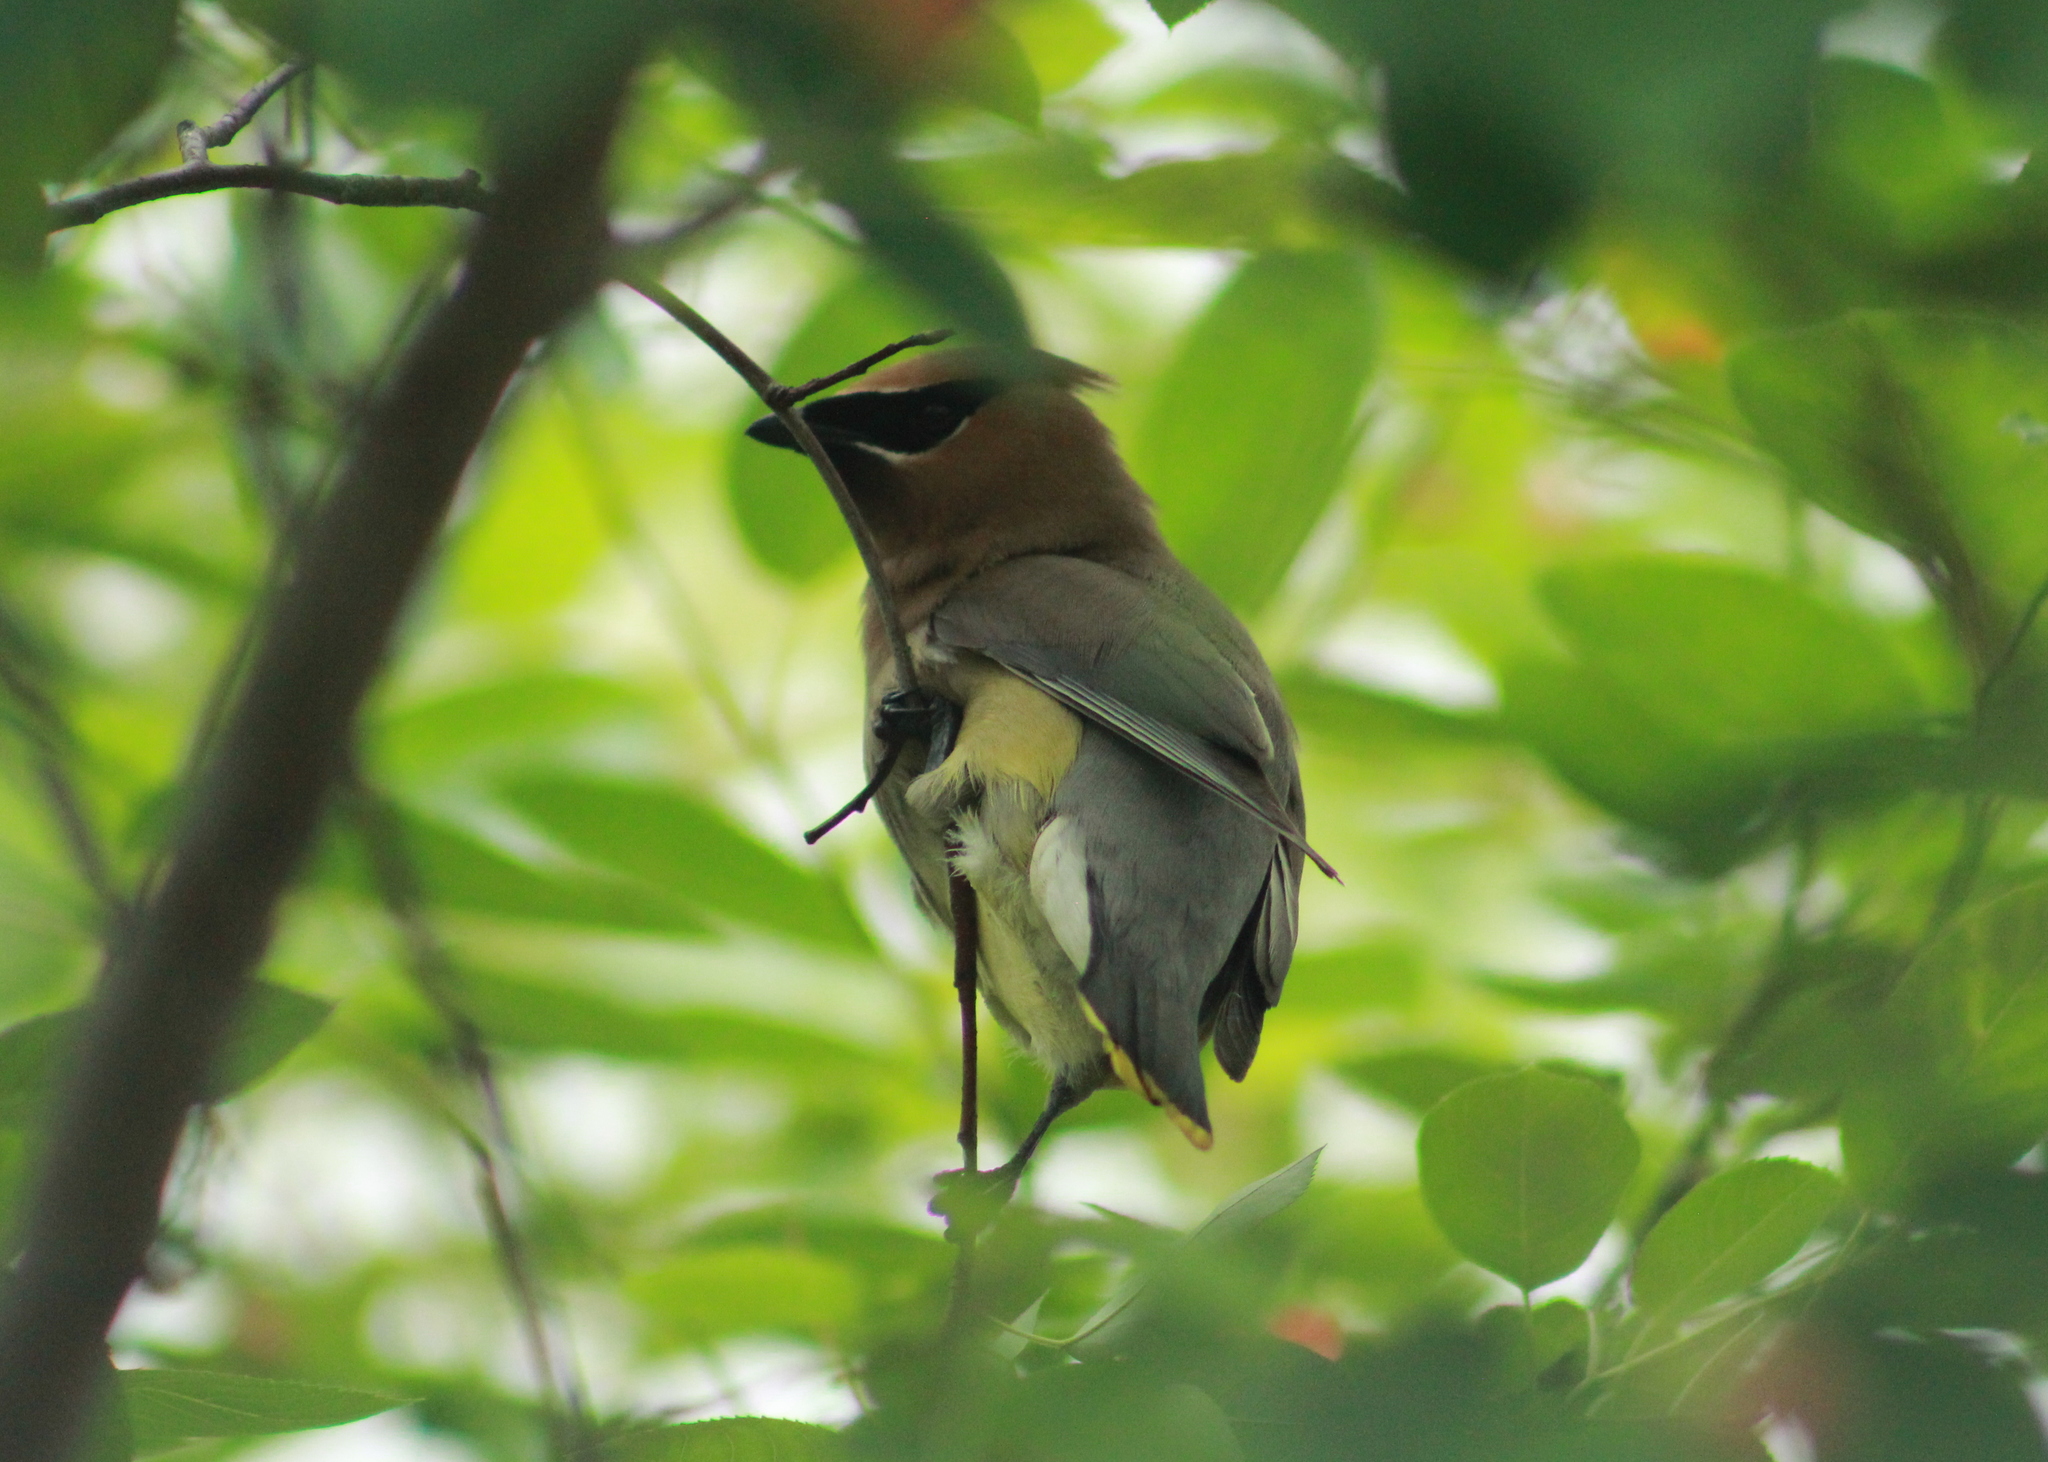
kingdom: Animalia
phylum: Chordata
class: Aves
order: Passeriformes
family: Bombycillidae
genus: Bombycilla
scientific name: Bombycilla cedrorum
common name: Cedar waxwing
